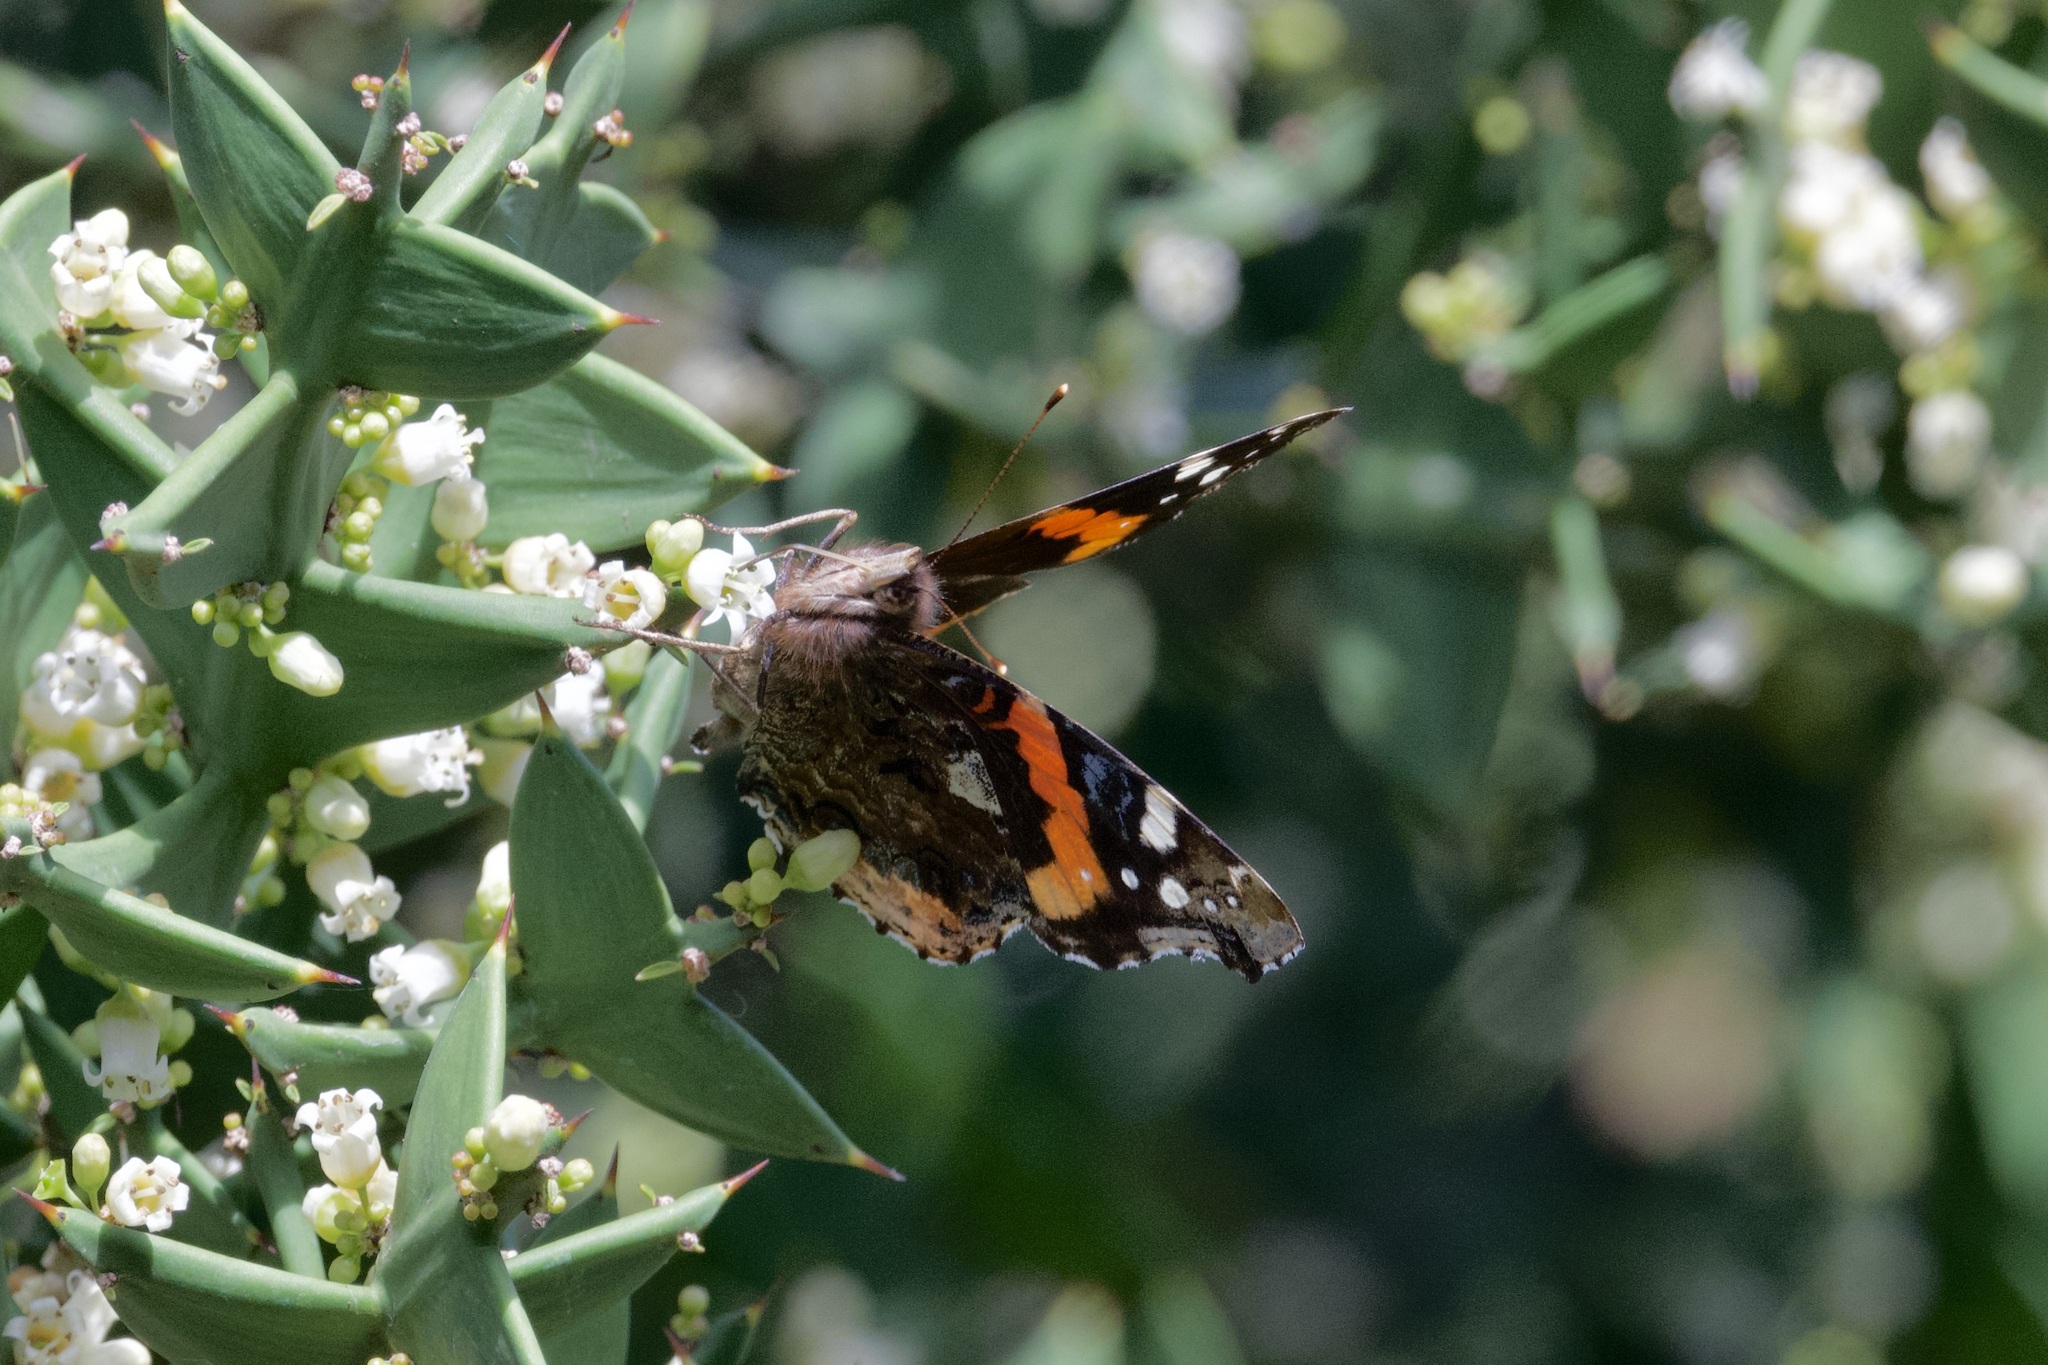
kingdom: Animalia
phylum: Arthropoda
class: Insecta
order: Lepidoptera
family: Nymphalidae
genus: Vanessa
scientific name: Vanessa atalanta
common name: Red admiral
